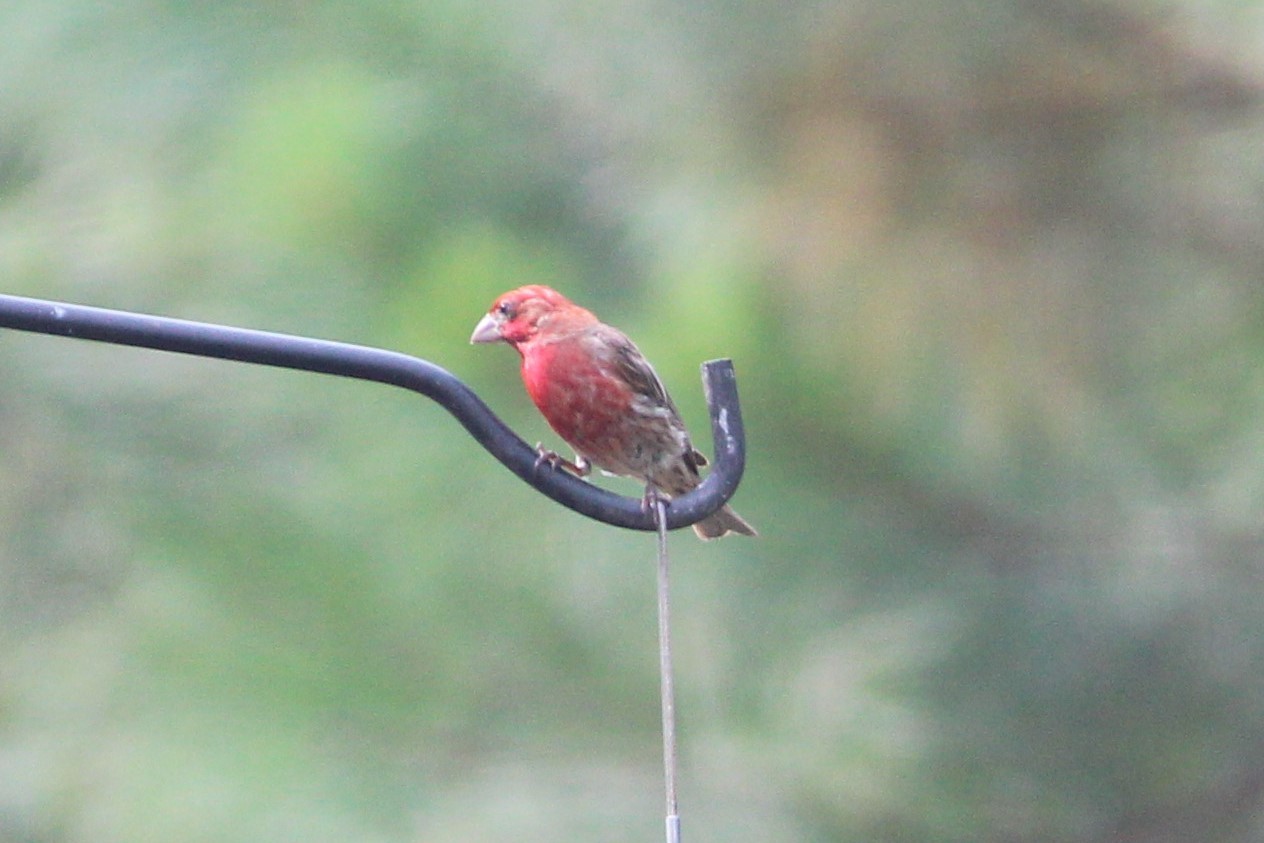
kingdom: Animalia
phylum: Chordata
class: Aves
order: Passeriformes
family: Fringillidae
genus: Haemorhous
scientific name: Haemorhous mexicanus
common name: House finch
